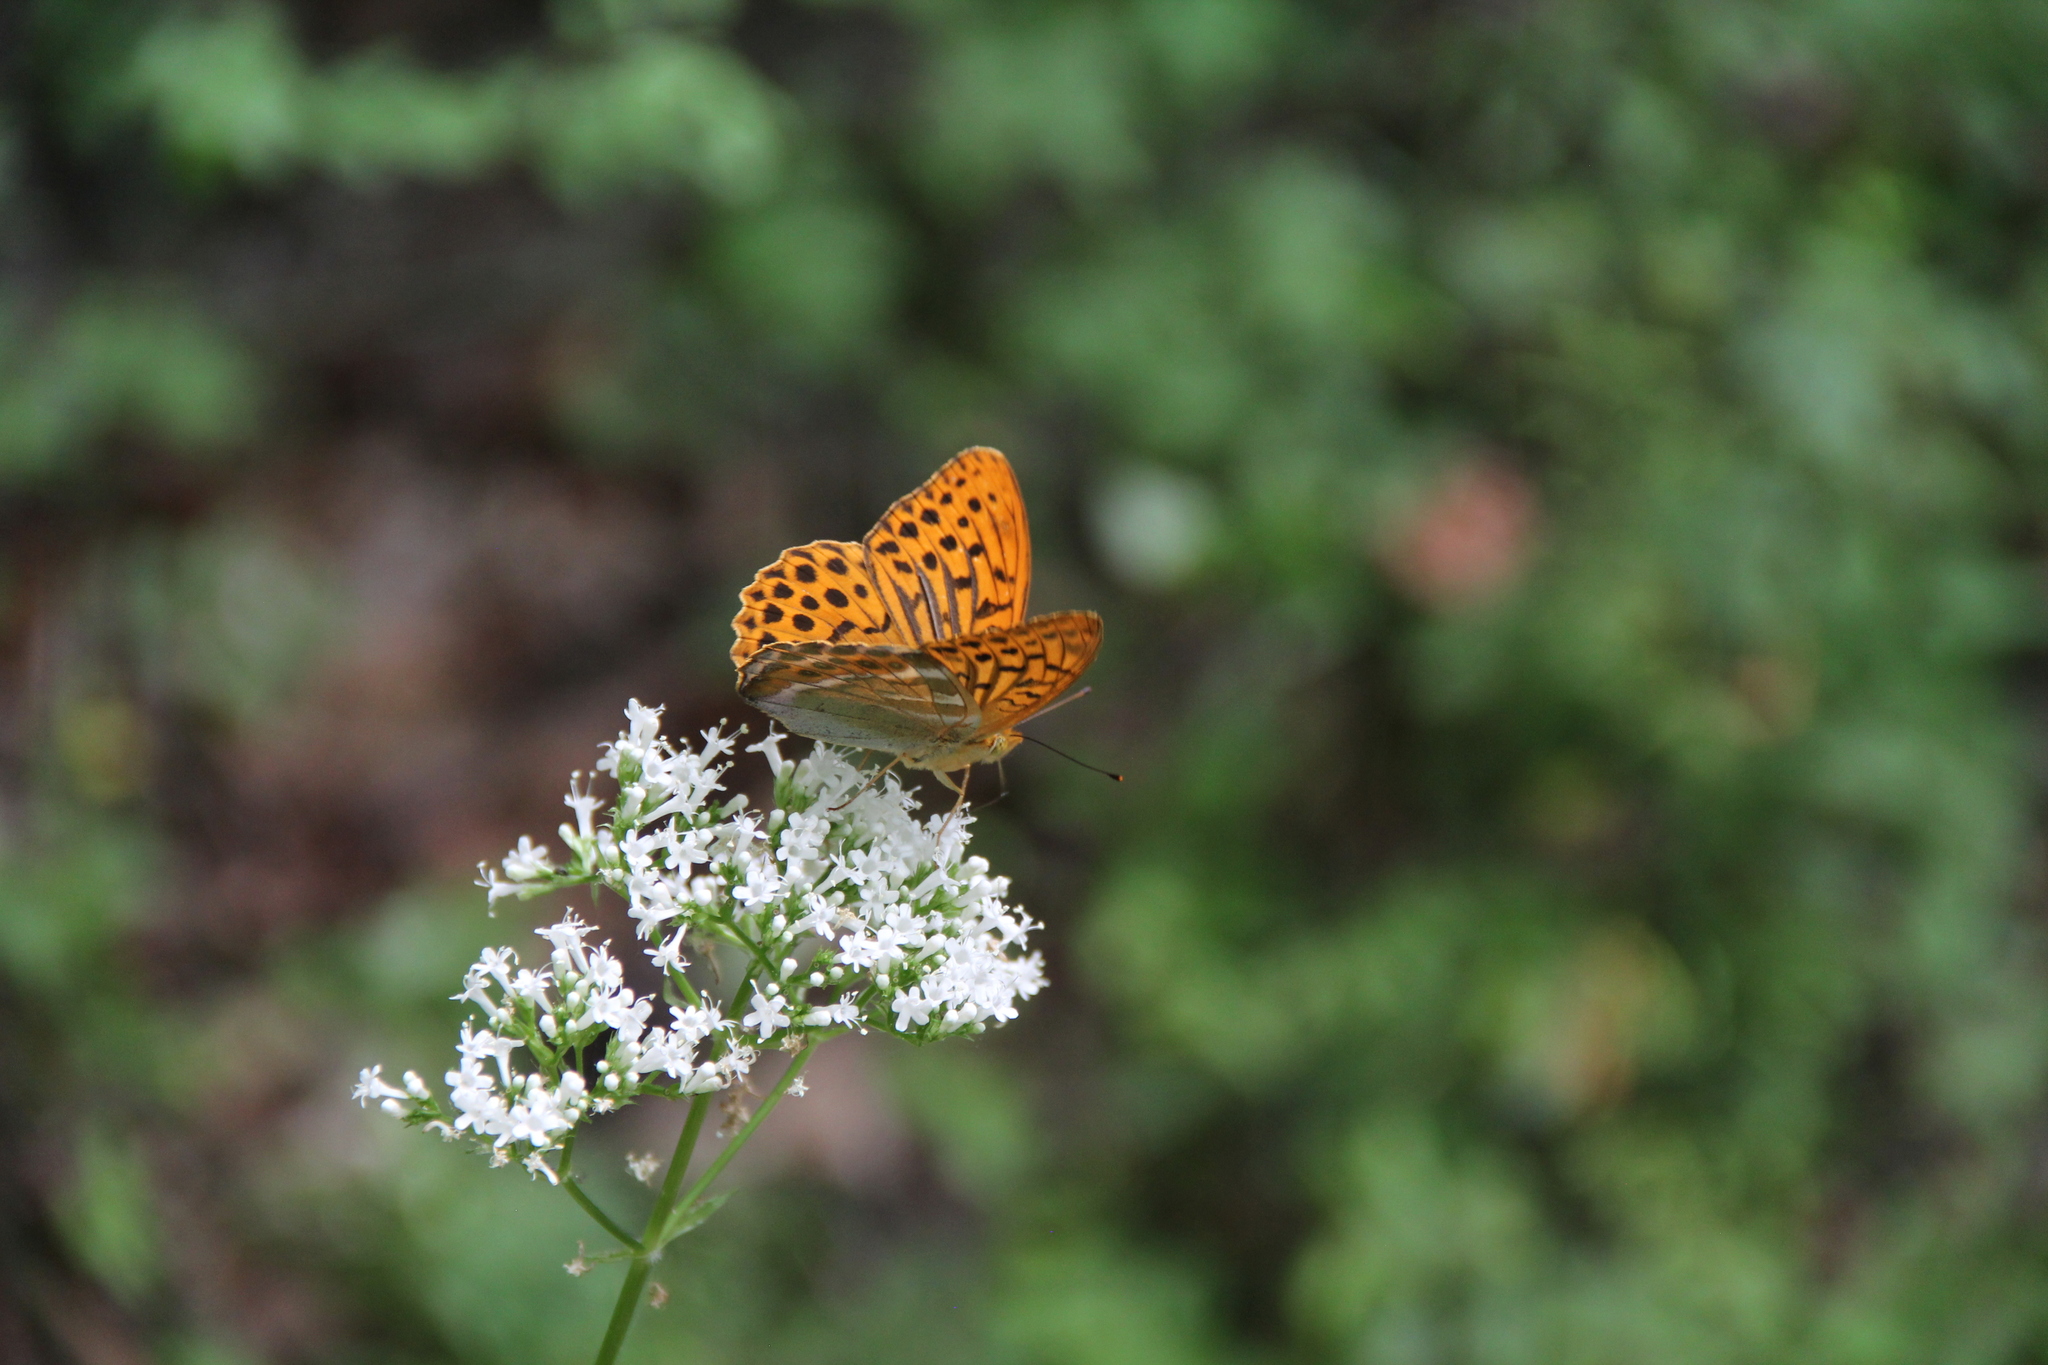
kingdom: Animalia
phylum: Arthropoda
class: Insecta
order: Lepidoptera
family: Nymphalidae
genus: Argynnis
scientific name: Argynnis paphia
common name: Silver-washed fritillary
